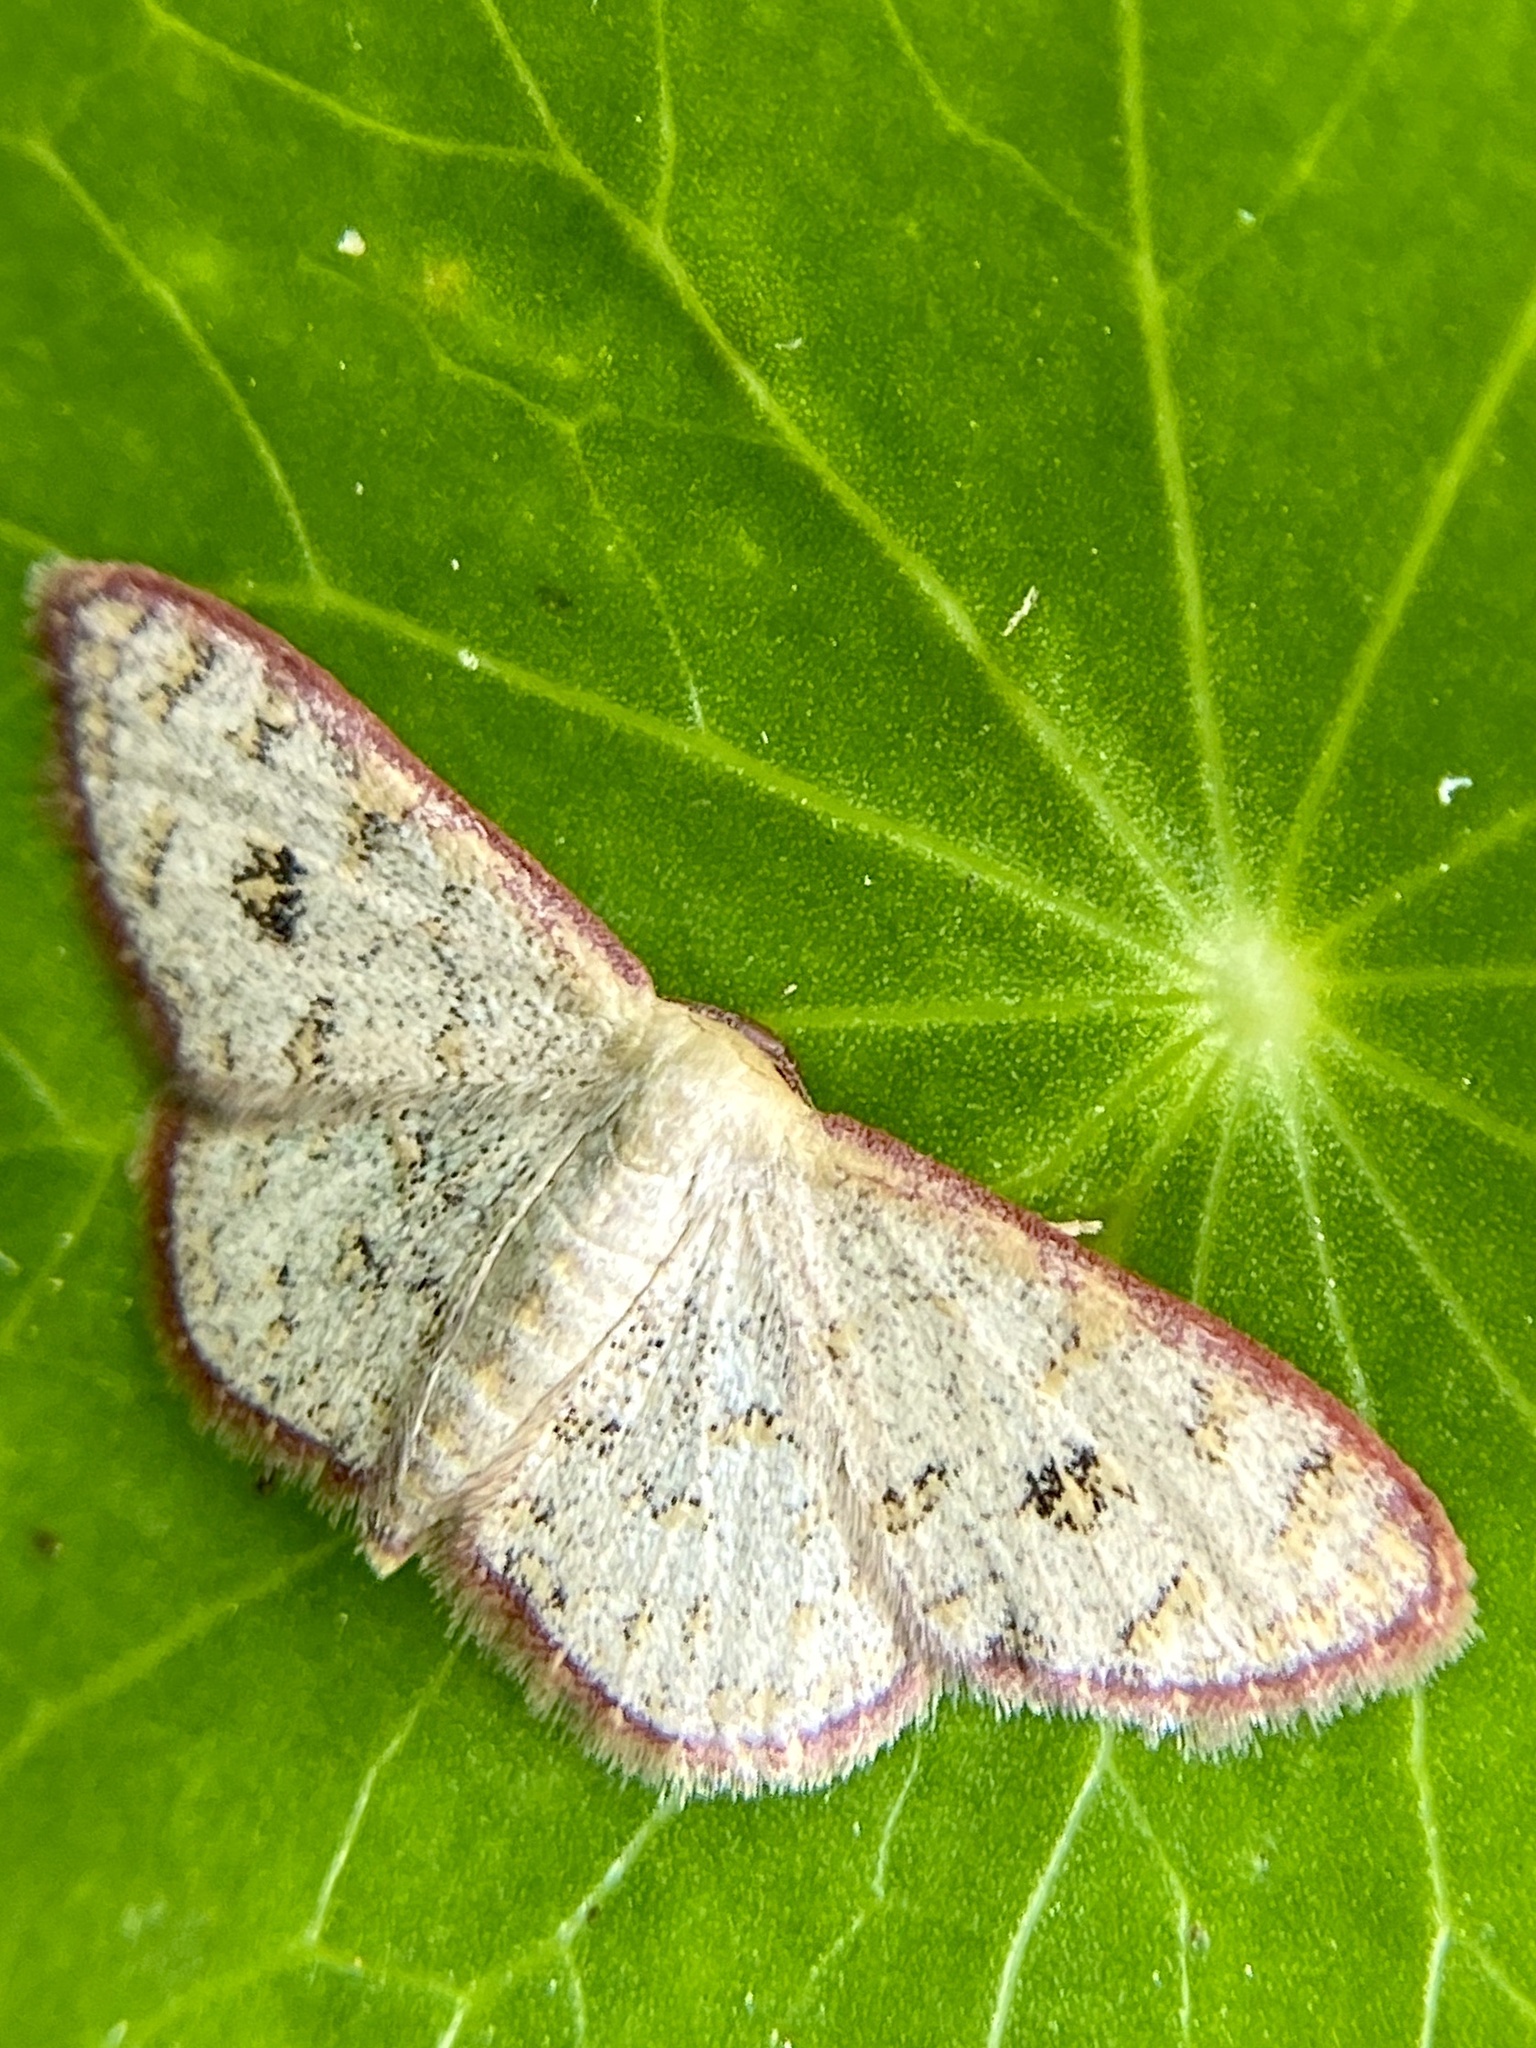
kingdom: Animalia
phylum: Arthropoda
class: Insecta
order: Lepidoptera
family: Geometridae
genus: Leptostales
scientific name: Leptostales pannaria
